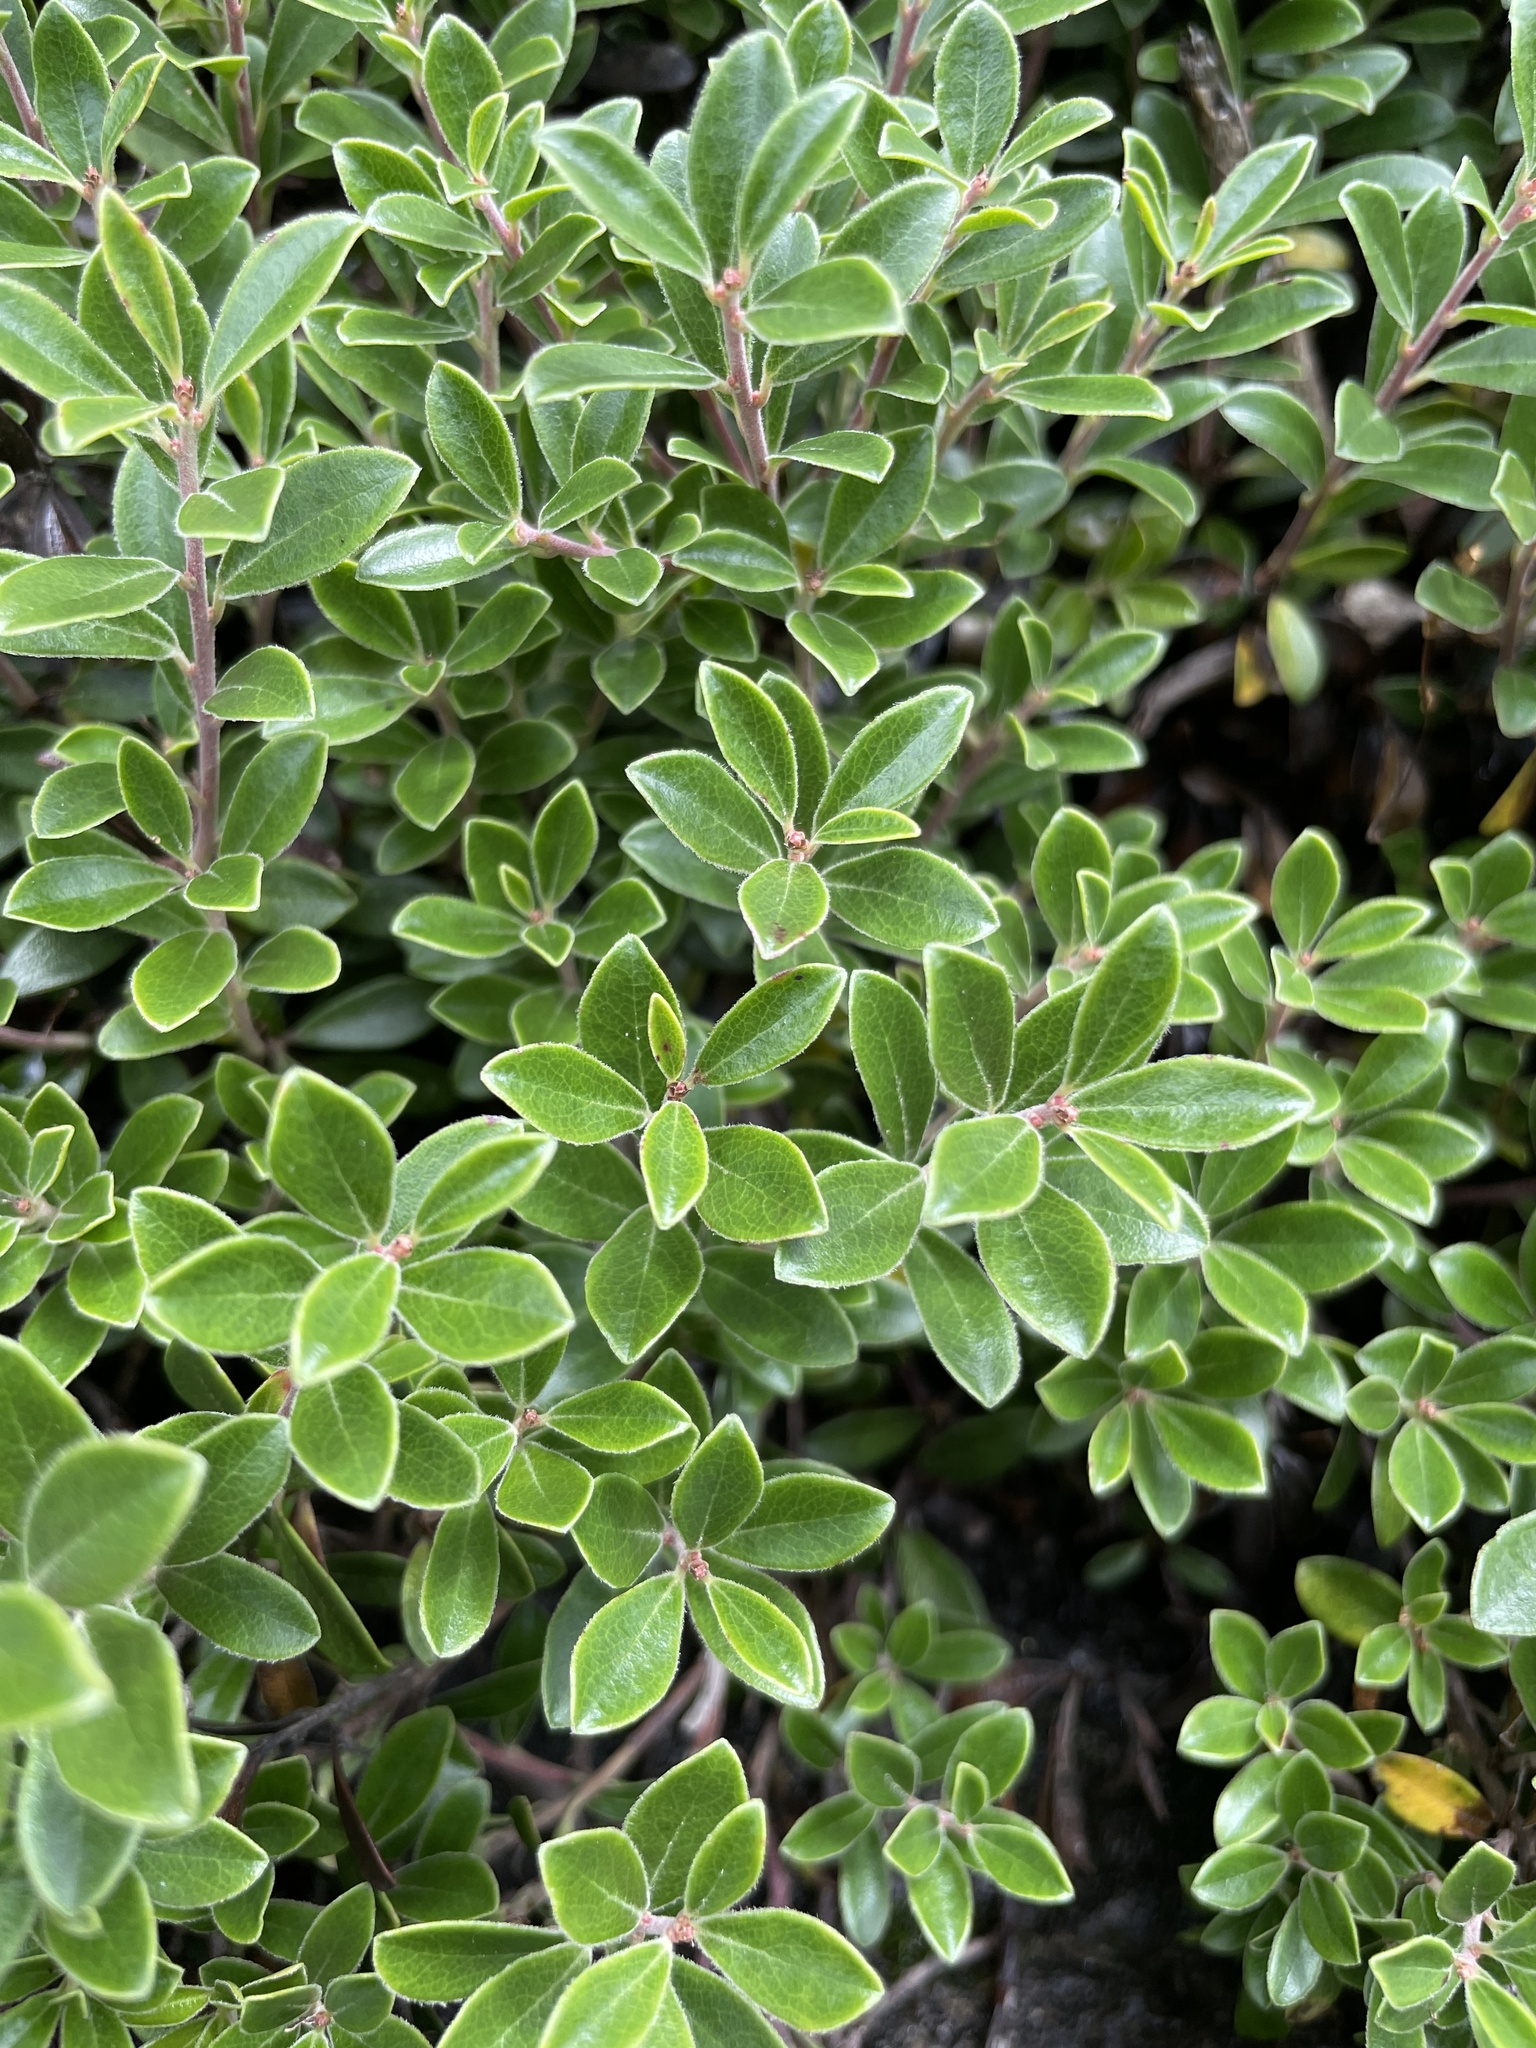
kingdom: Plantae
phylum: Tracheophyta
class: Magnoliopsida
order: Ericales
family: Ericaceae
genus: Arctostaphylos
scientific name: Arctostaphylos uva-ursi
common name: Bearberry
